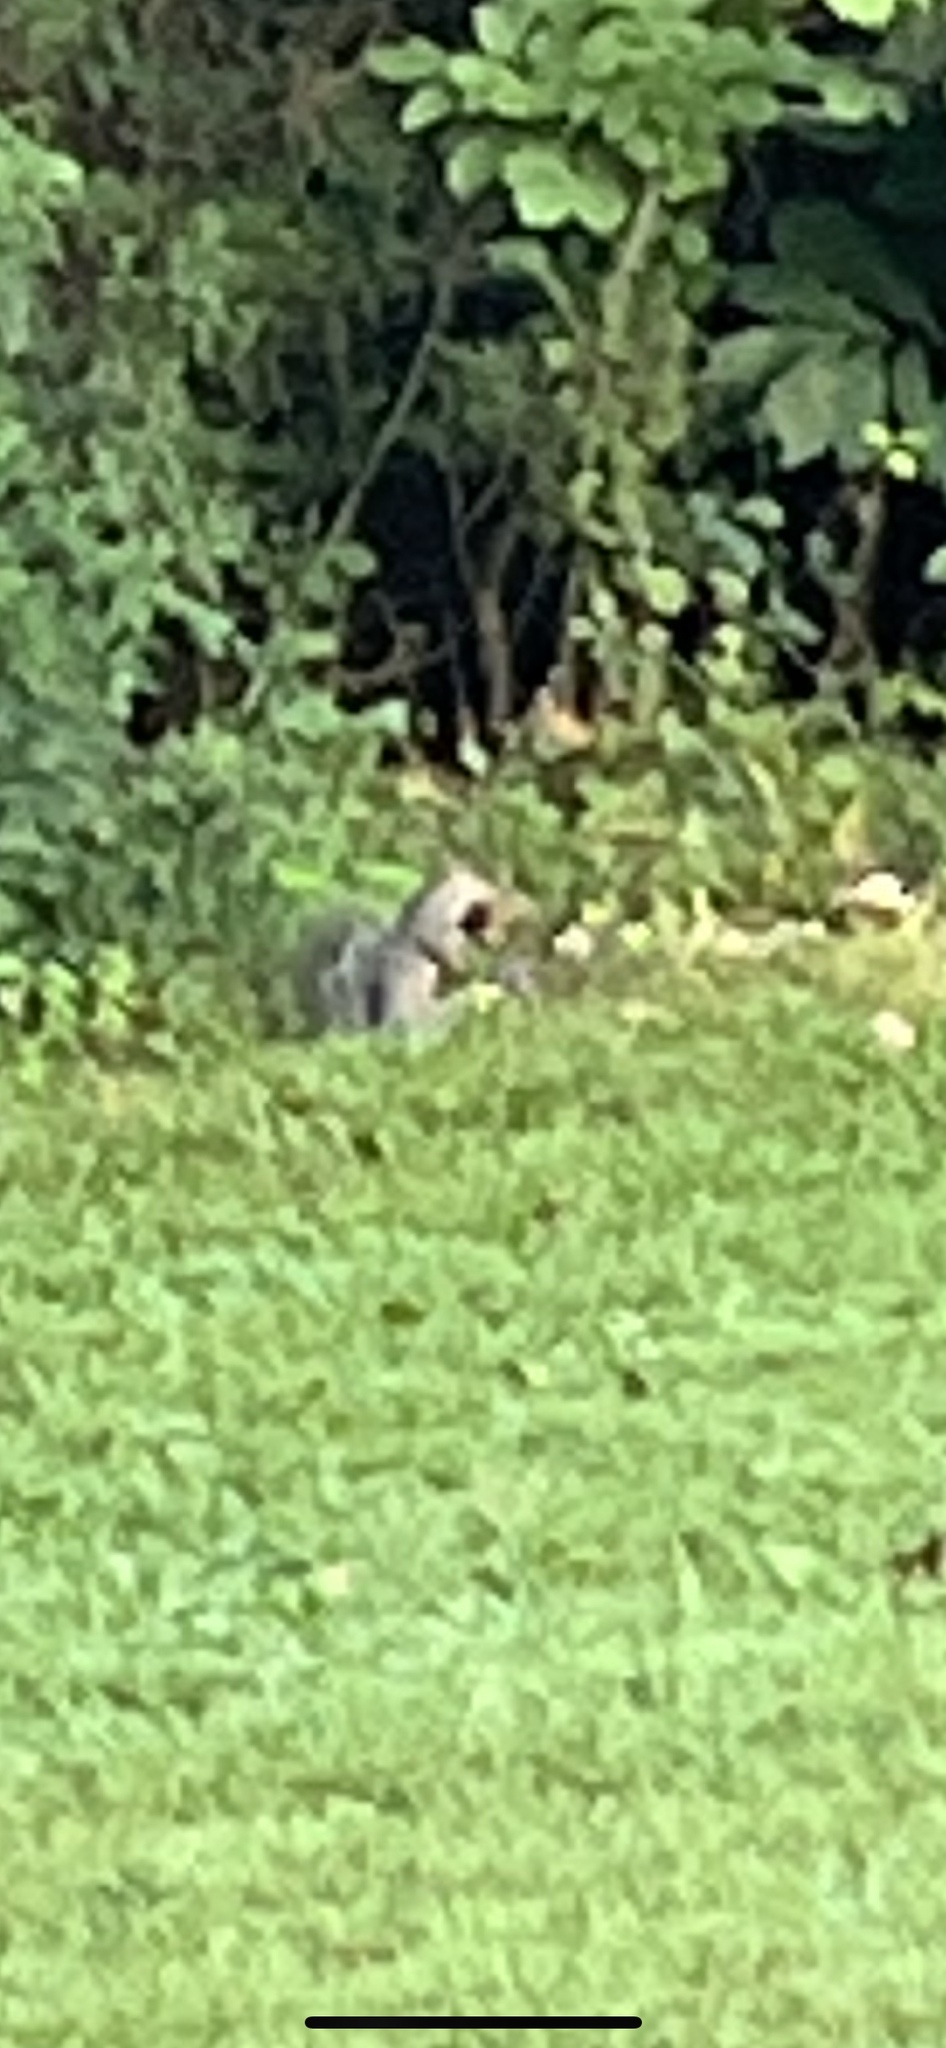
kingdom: Animalia
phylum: Chordata
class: Mammalia
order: Rodentia
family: Sciuridae
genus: Sciurus
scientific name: Sciurus carolinensis
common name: Eastern gray squirrel
